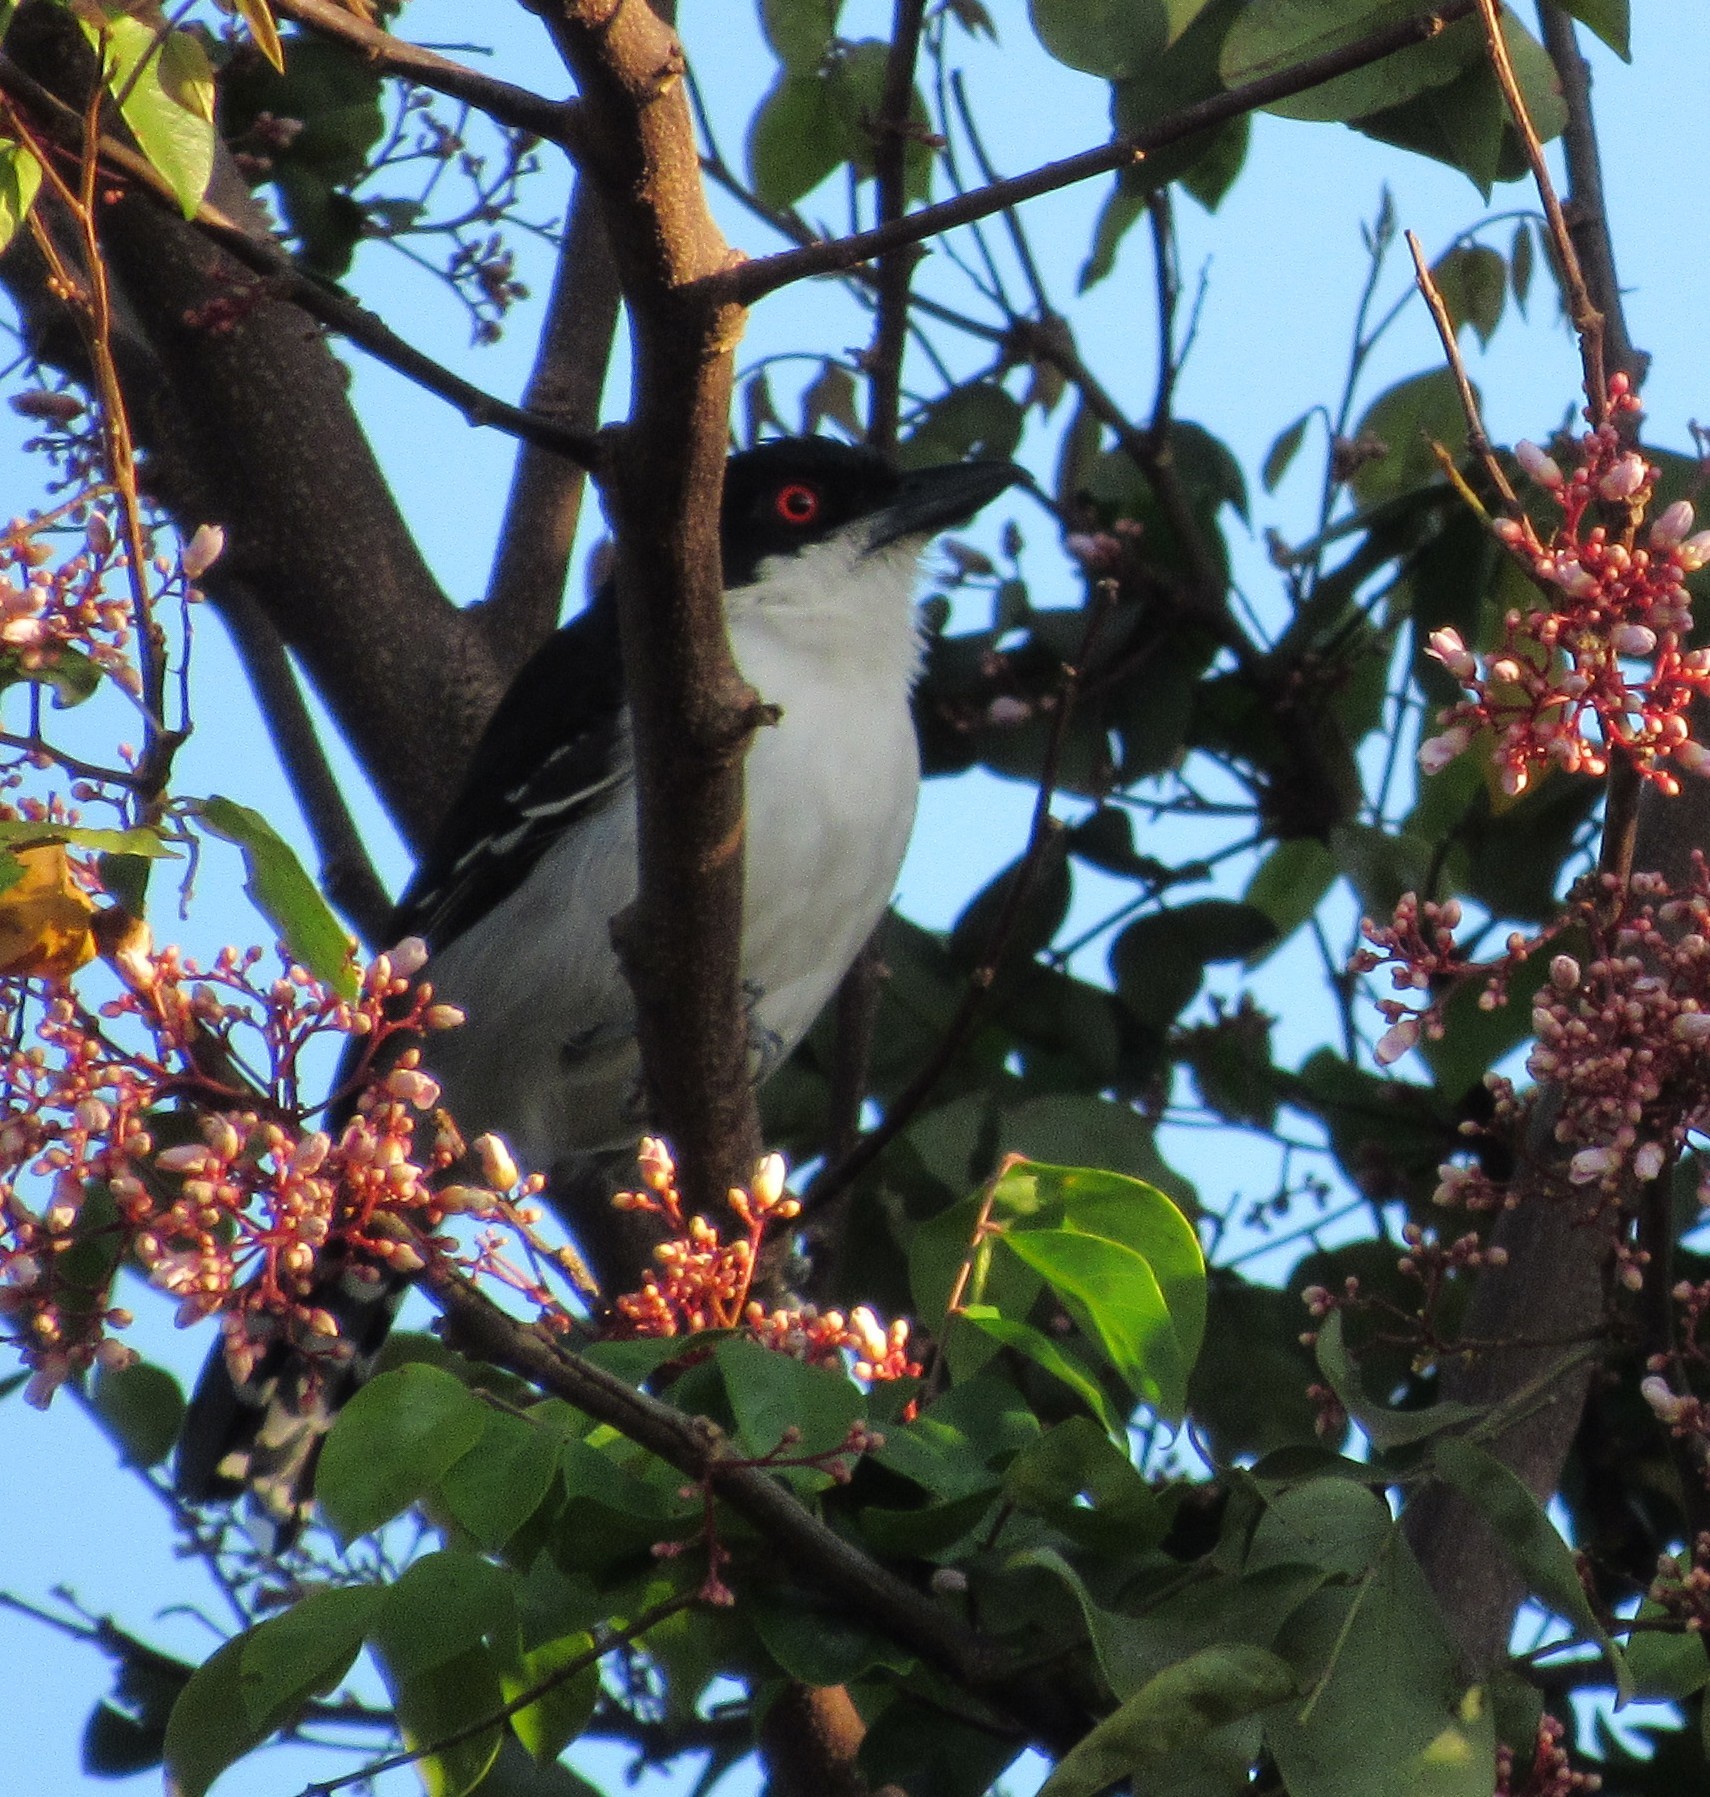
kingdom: Animalia
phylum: Chordata
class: Aves
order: Passeriformes
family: Thamnophilidae
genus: Taraba
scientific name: Taraba major
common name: Great antshrike
